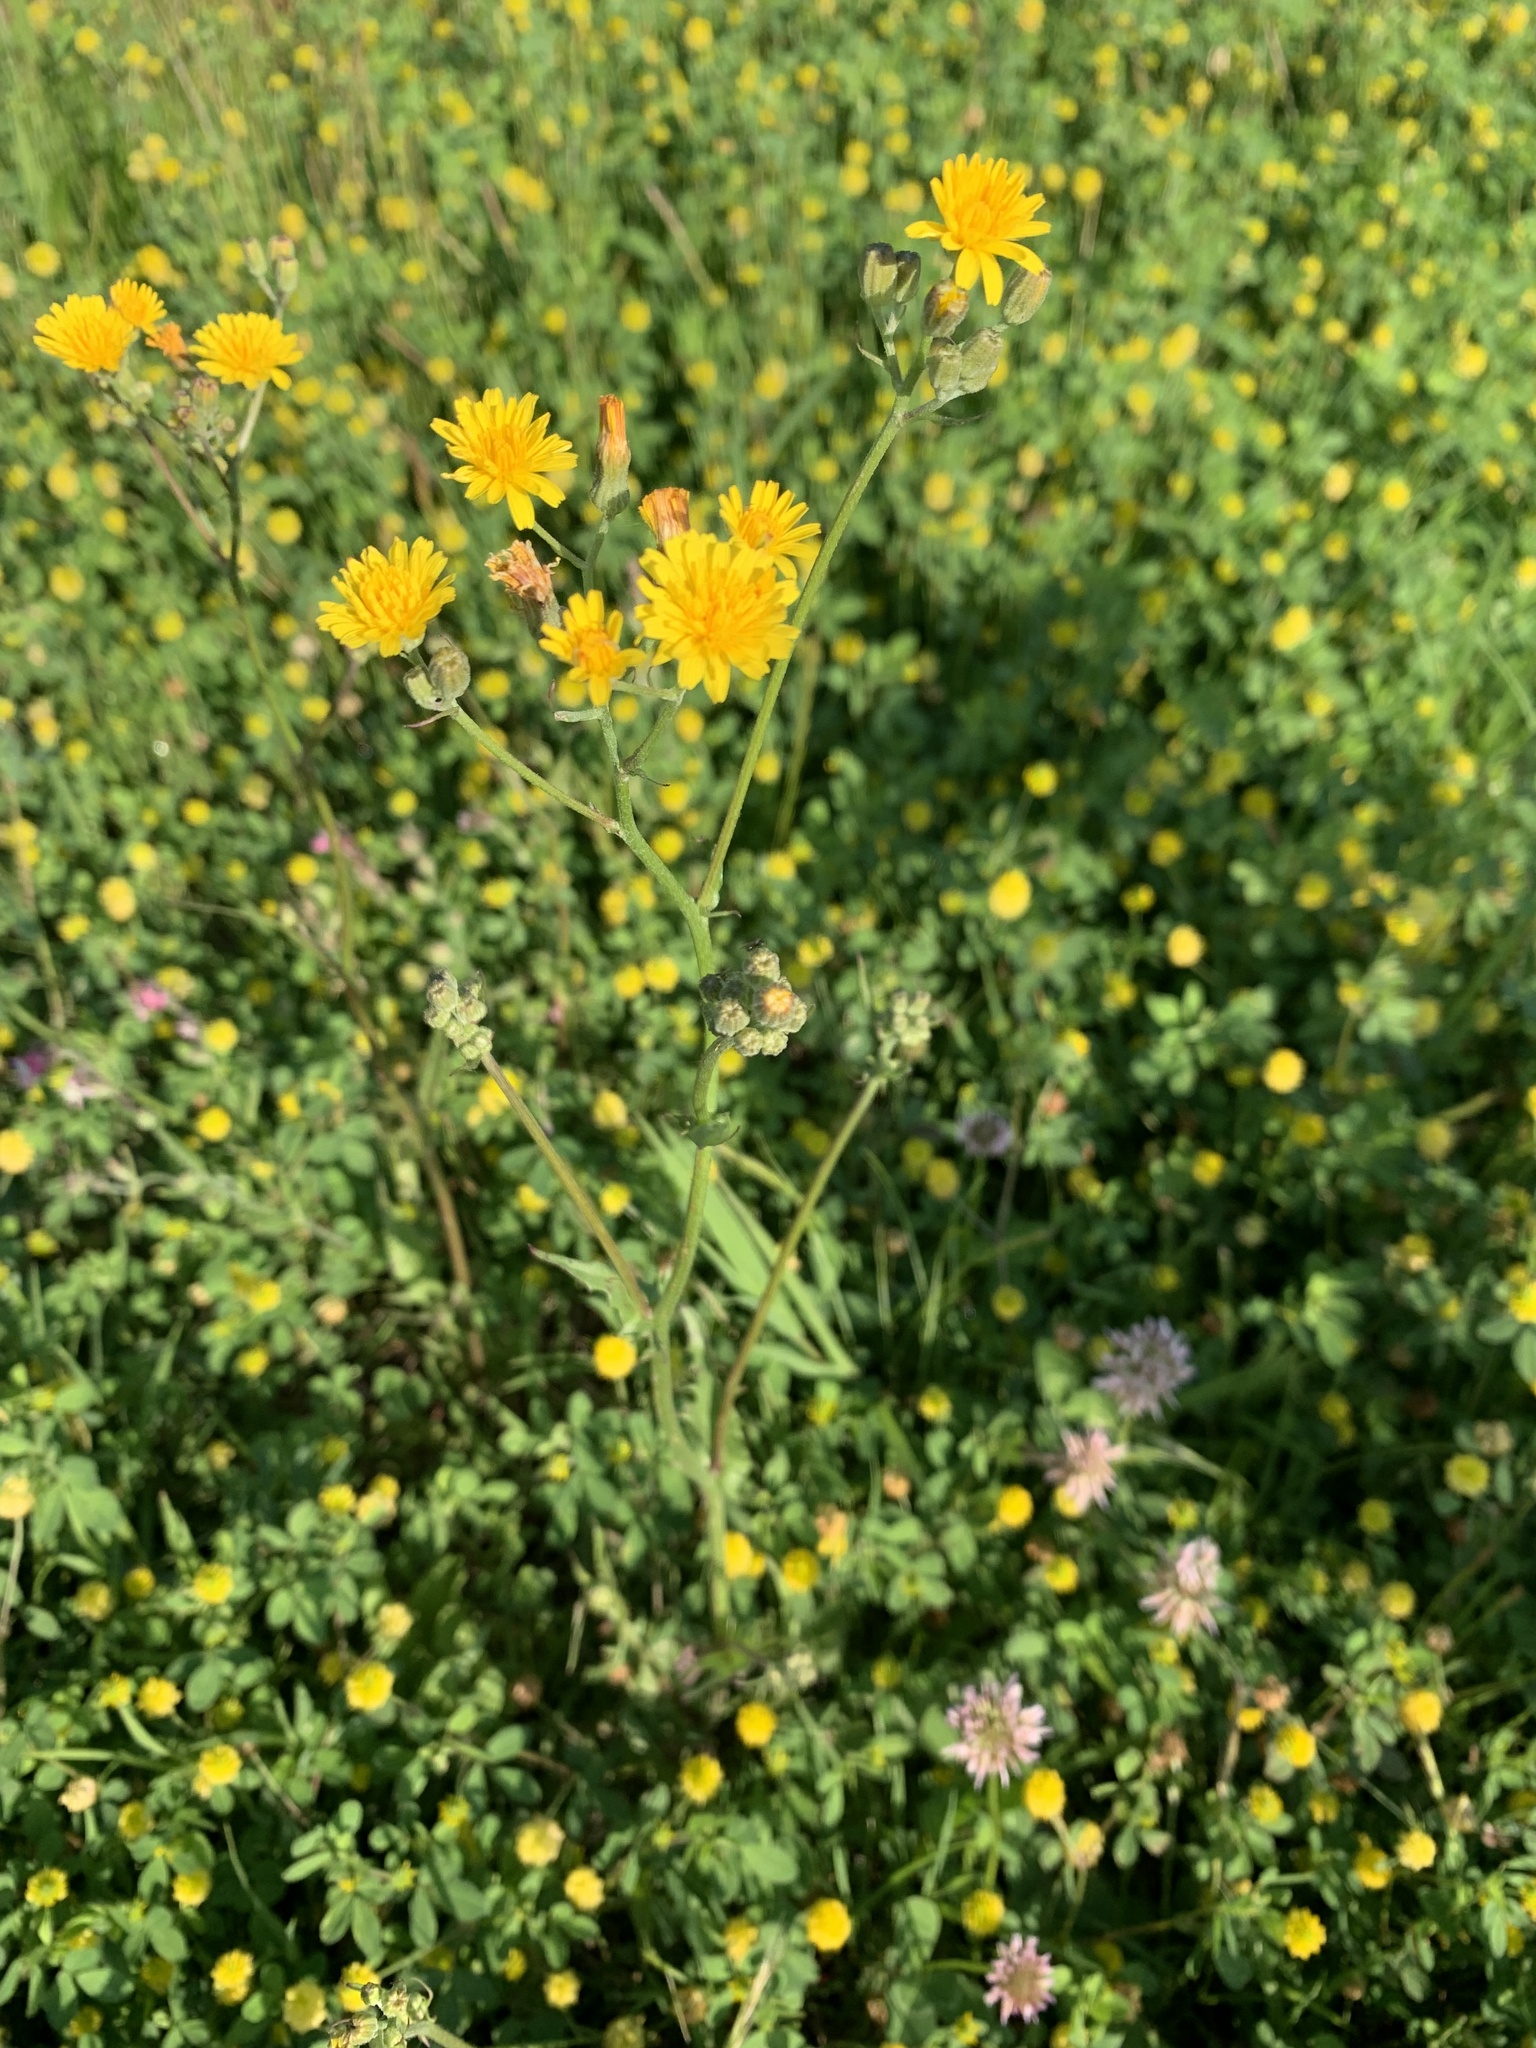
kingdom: Plantae
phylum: Tracheophyta
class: Magnoliopsida
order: Asterales
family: Asteraceae
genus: Crepis
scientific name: Crepis capillaris
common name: Smooth hawksbeard
